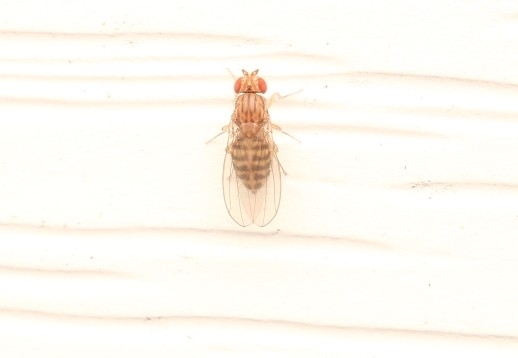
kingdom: Animalia
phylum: Arthropoda
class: Insecta
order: Diptera
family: Drosophilidae
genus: Drosophila
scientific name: Drosophila busckii
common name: Pomace fly
